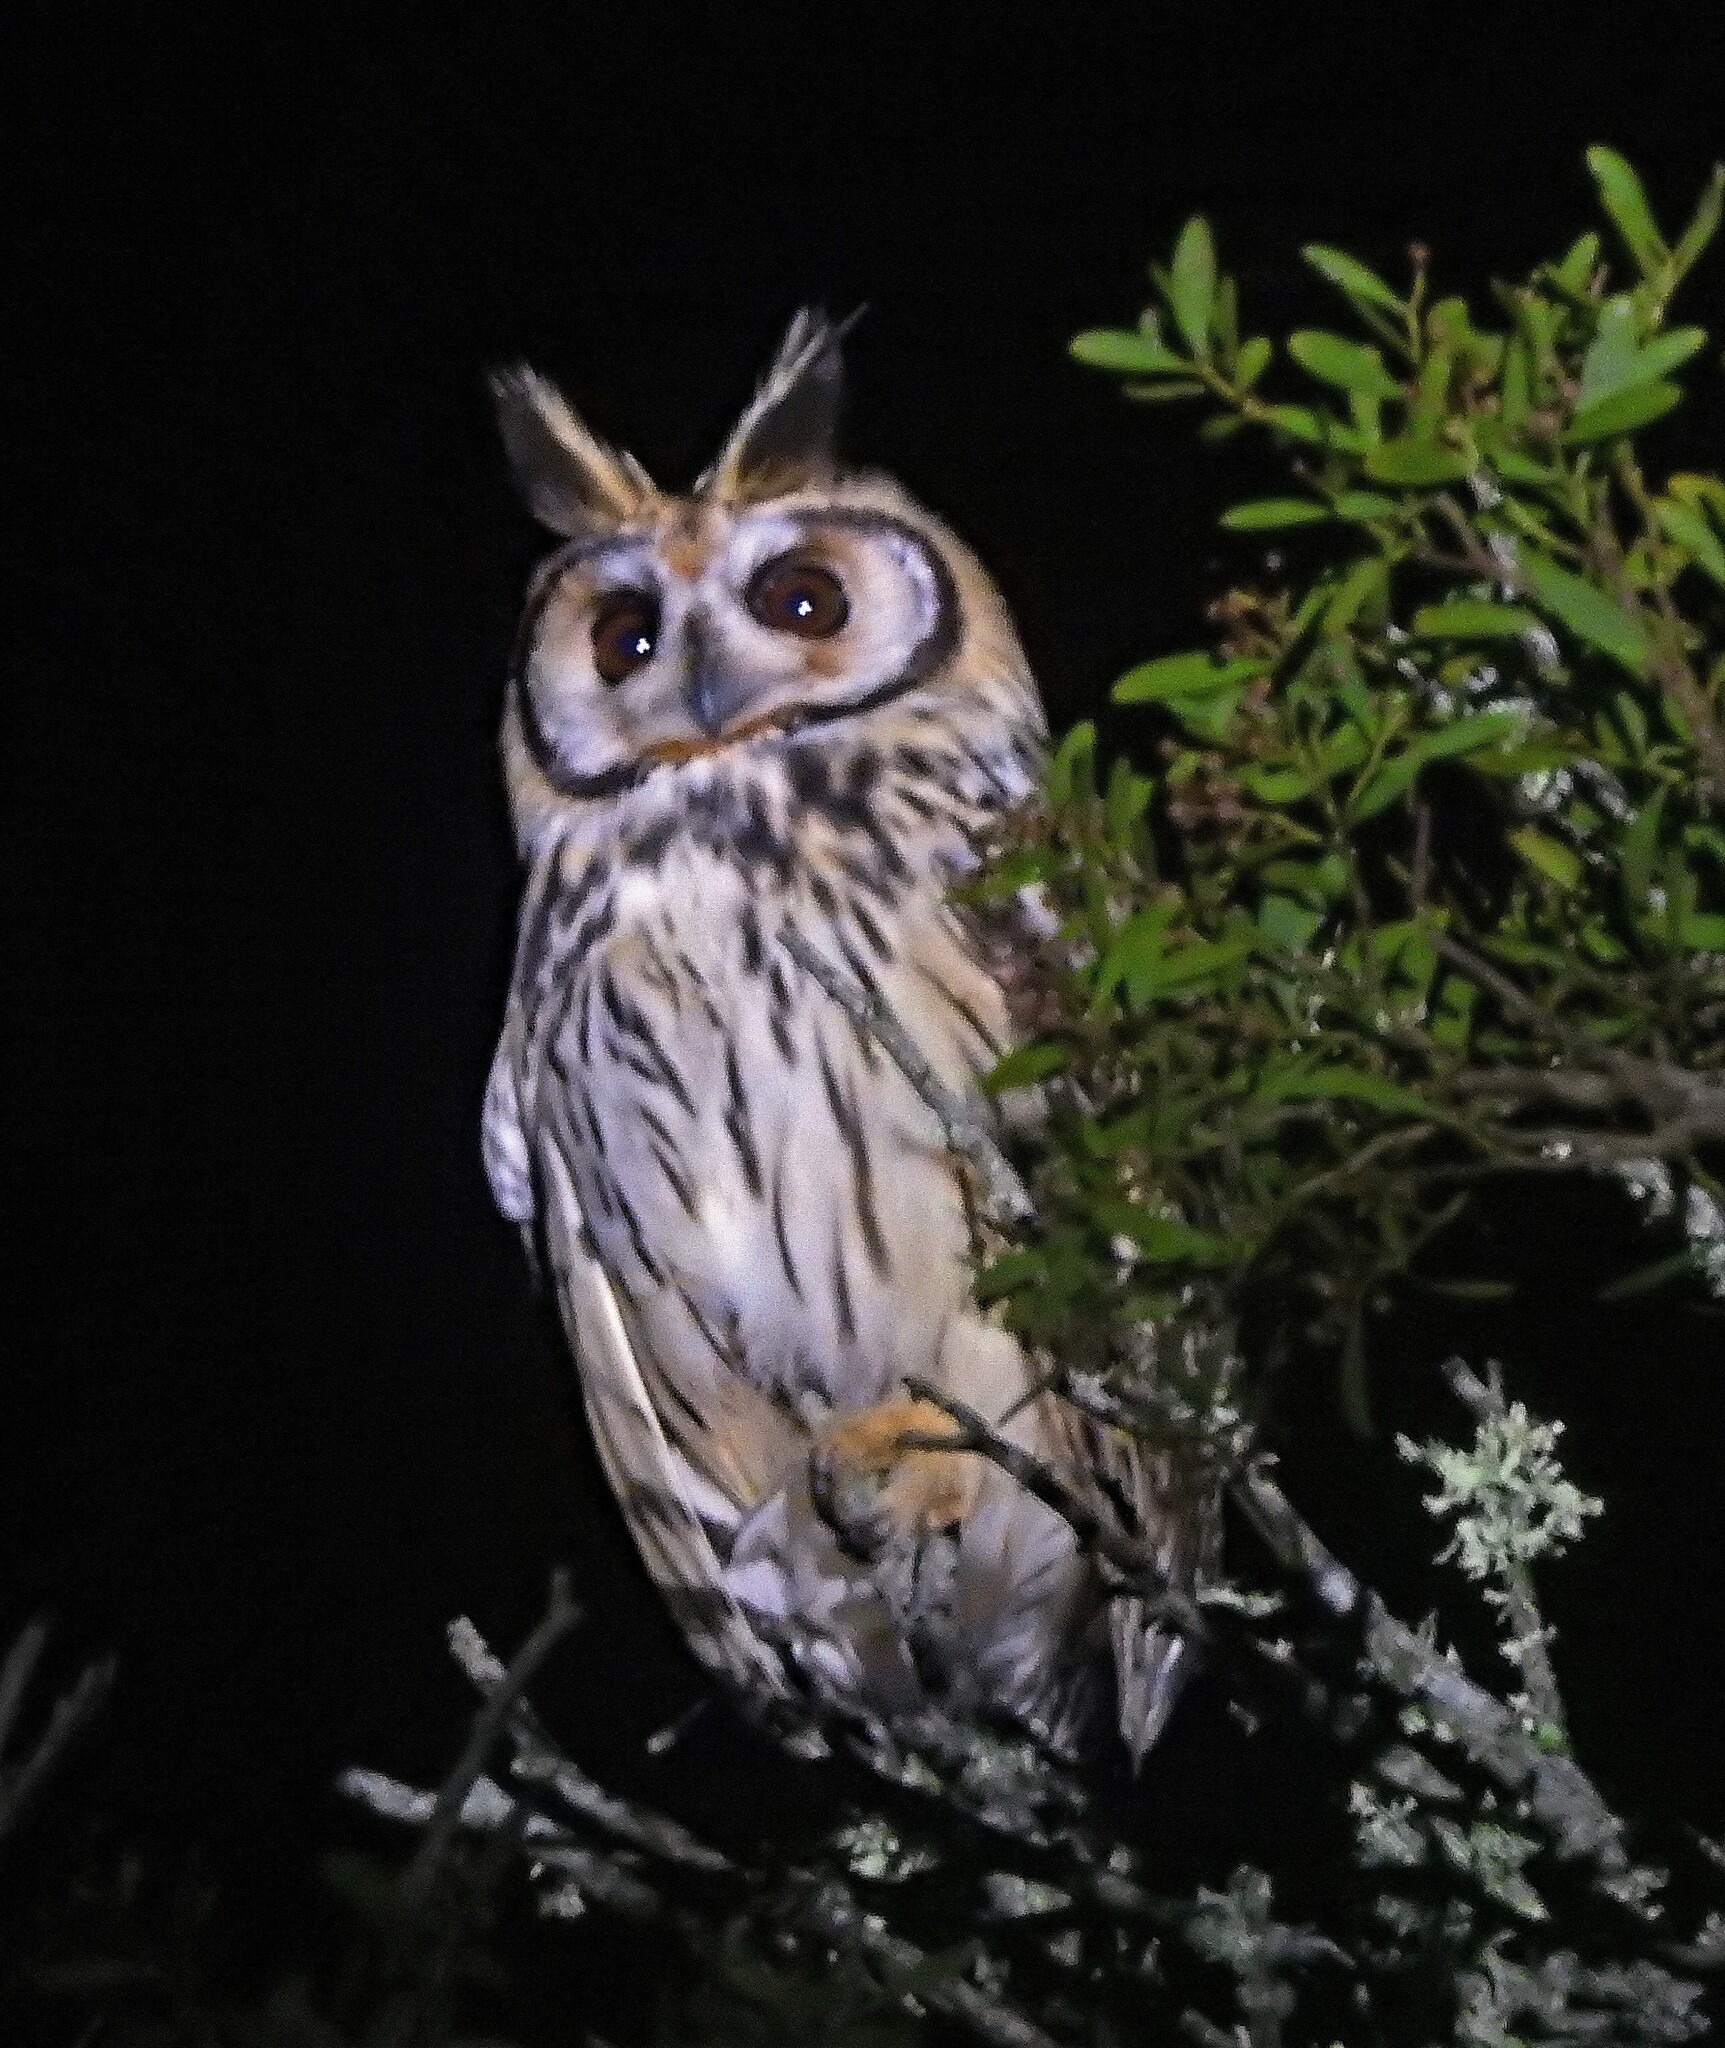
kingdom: Animalia
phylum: Chordata
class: Aves
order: Strigiformes
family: Strigidae
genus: Pseudoscops
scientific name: Pseudoscops clamator
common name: Striped owl
